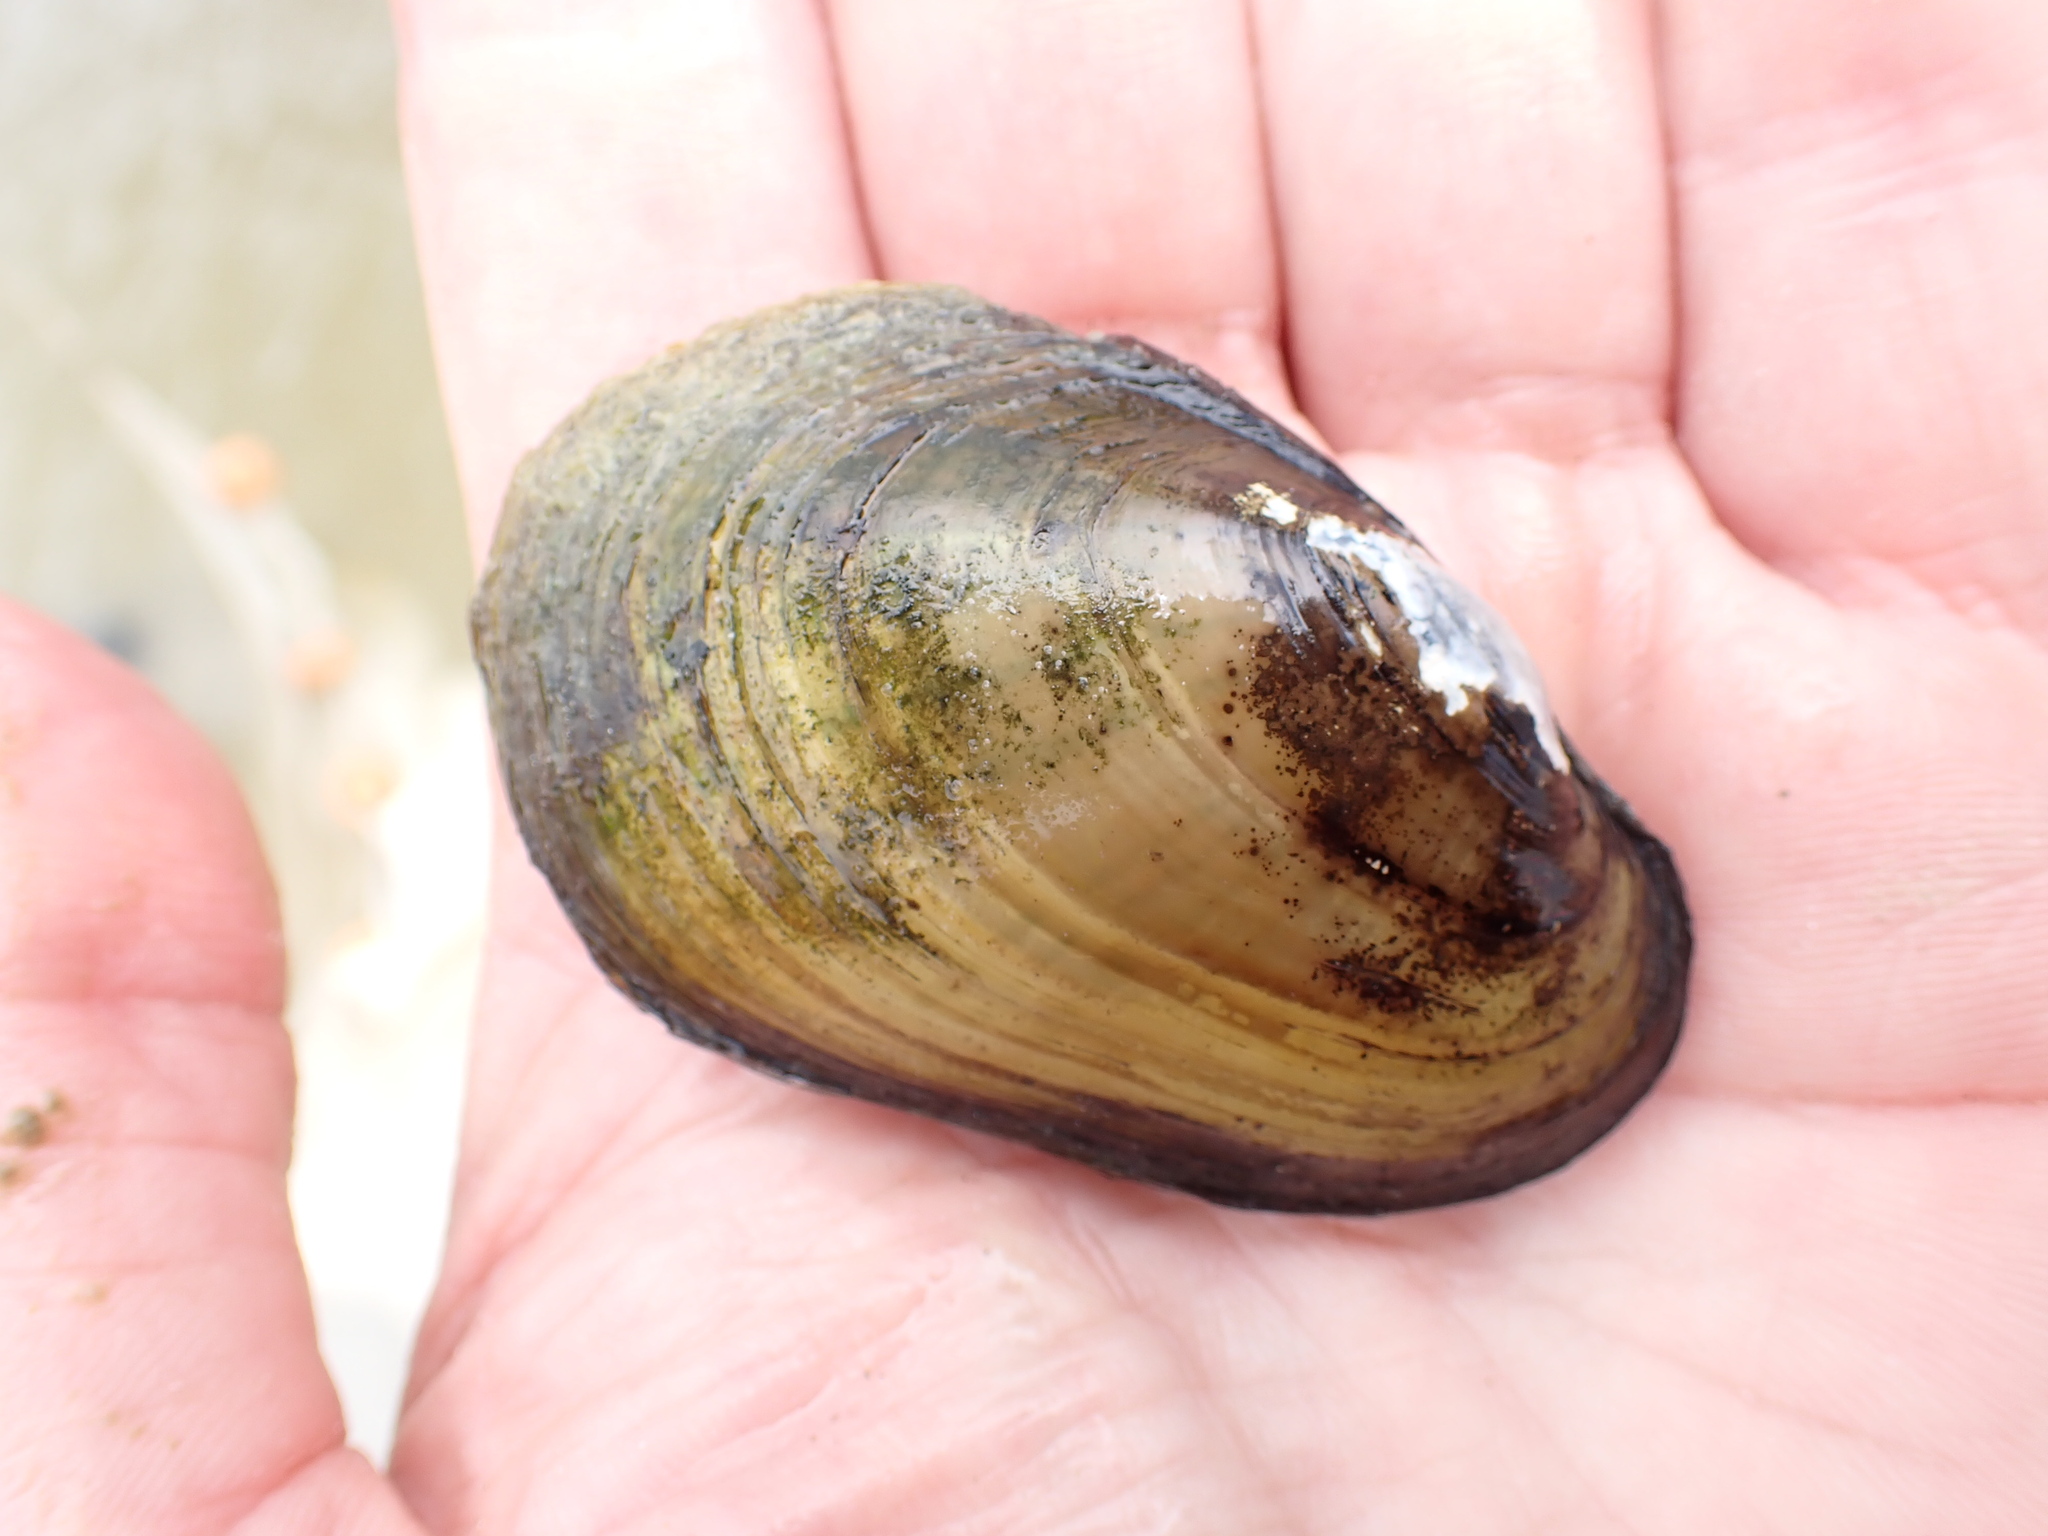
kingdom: Animalia
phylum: Mollusca
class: Bivalvia
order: Unionida
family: Unionidae
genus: Lampsilis
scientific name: Lampsilis siliquoidea
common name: Fatmucket
